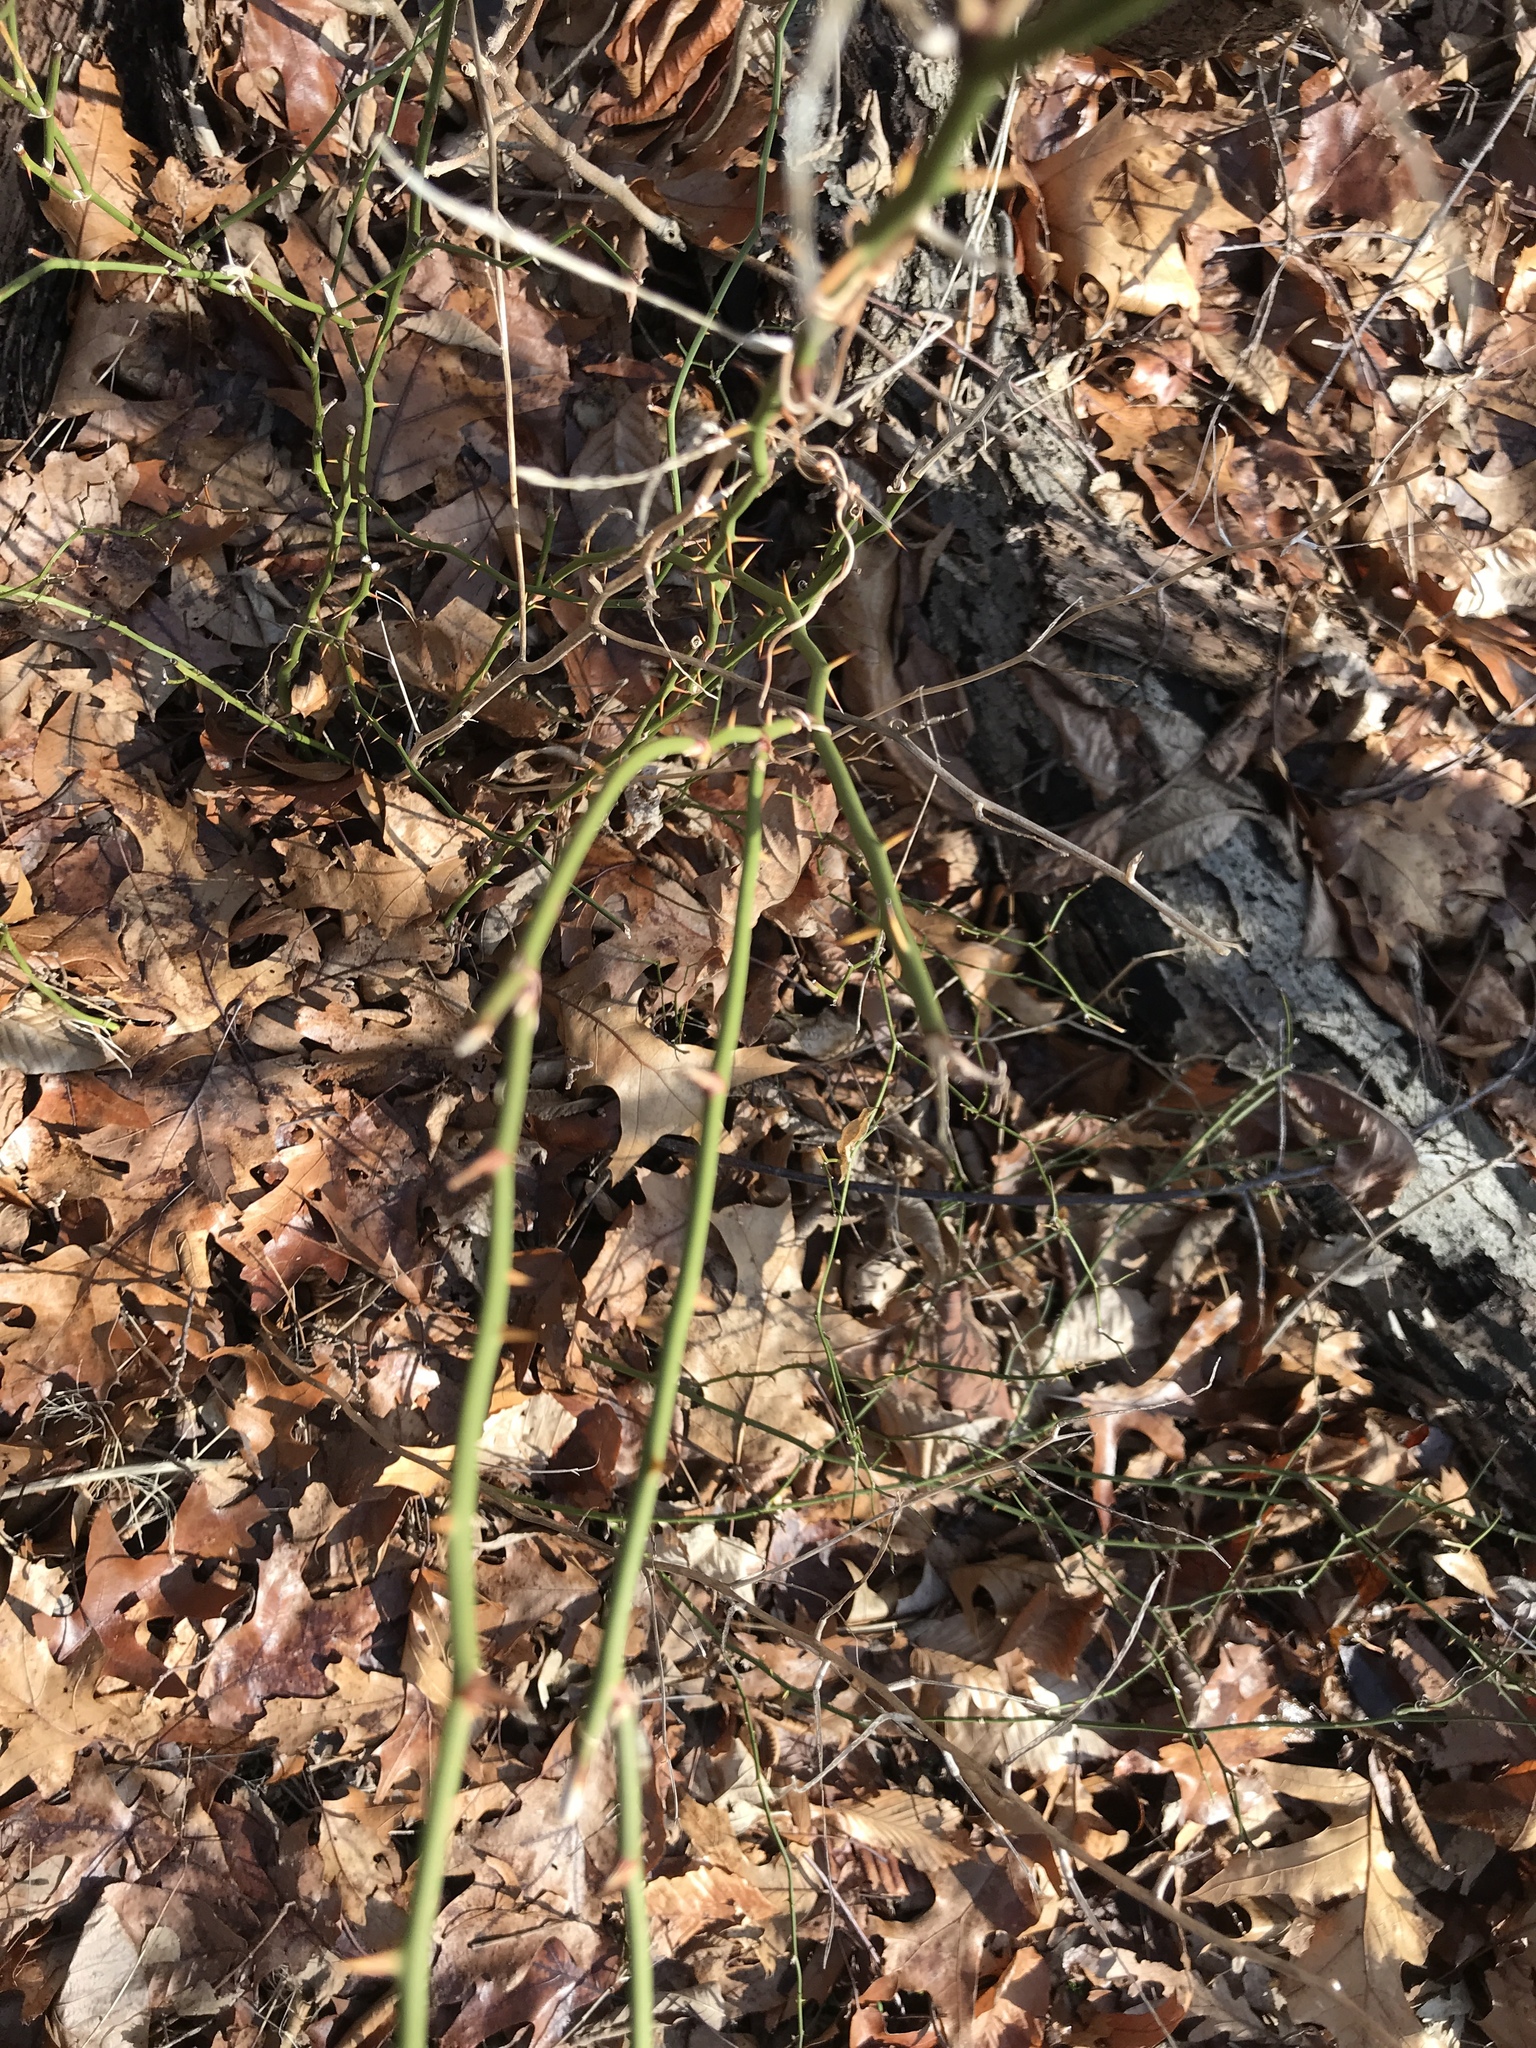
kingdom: Plantae
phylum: Tracheophyta
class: Liliopsida
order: Liliales
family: Smilacaceae
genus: Smilax
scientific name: Smilax rotundifolia
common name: Bullbriar
